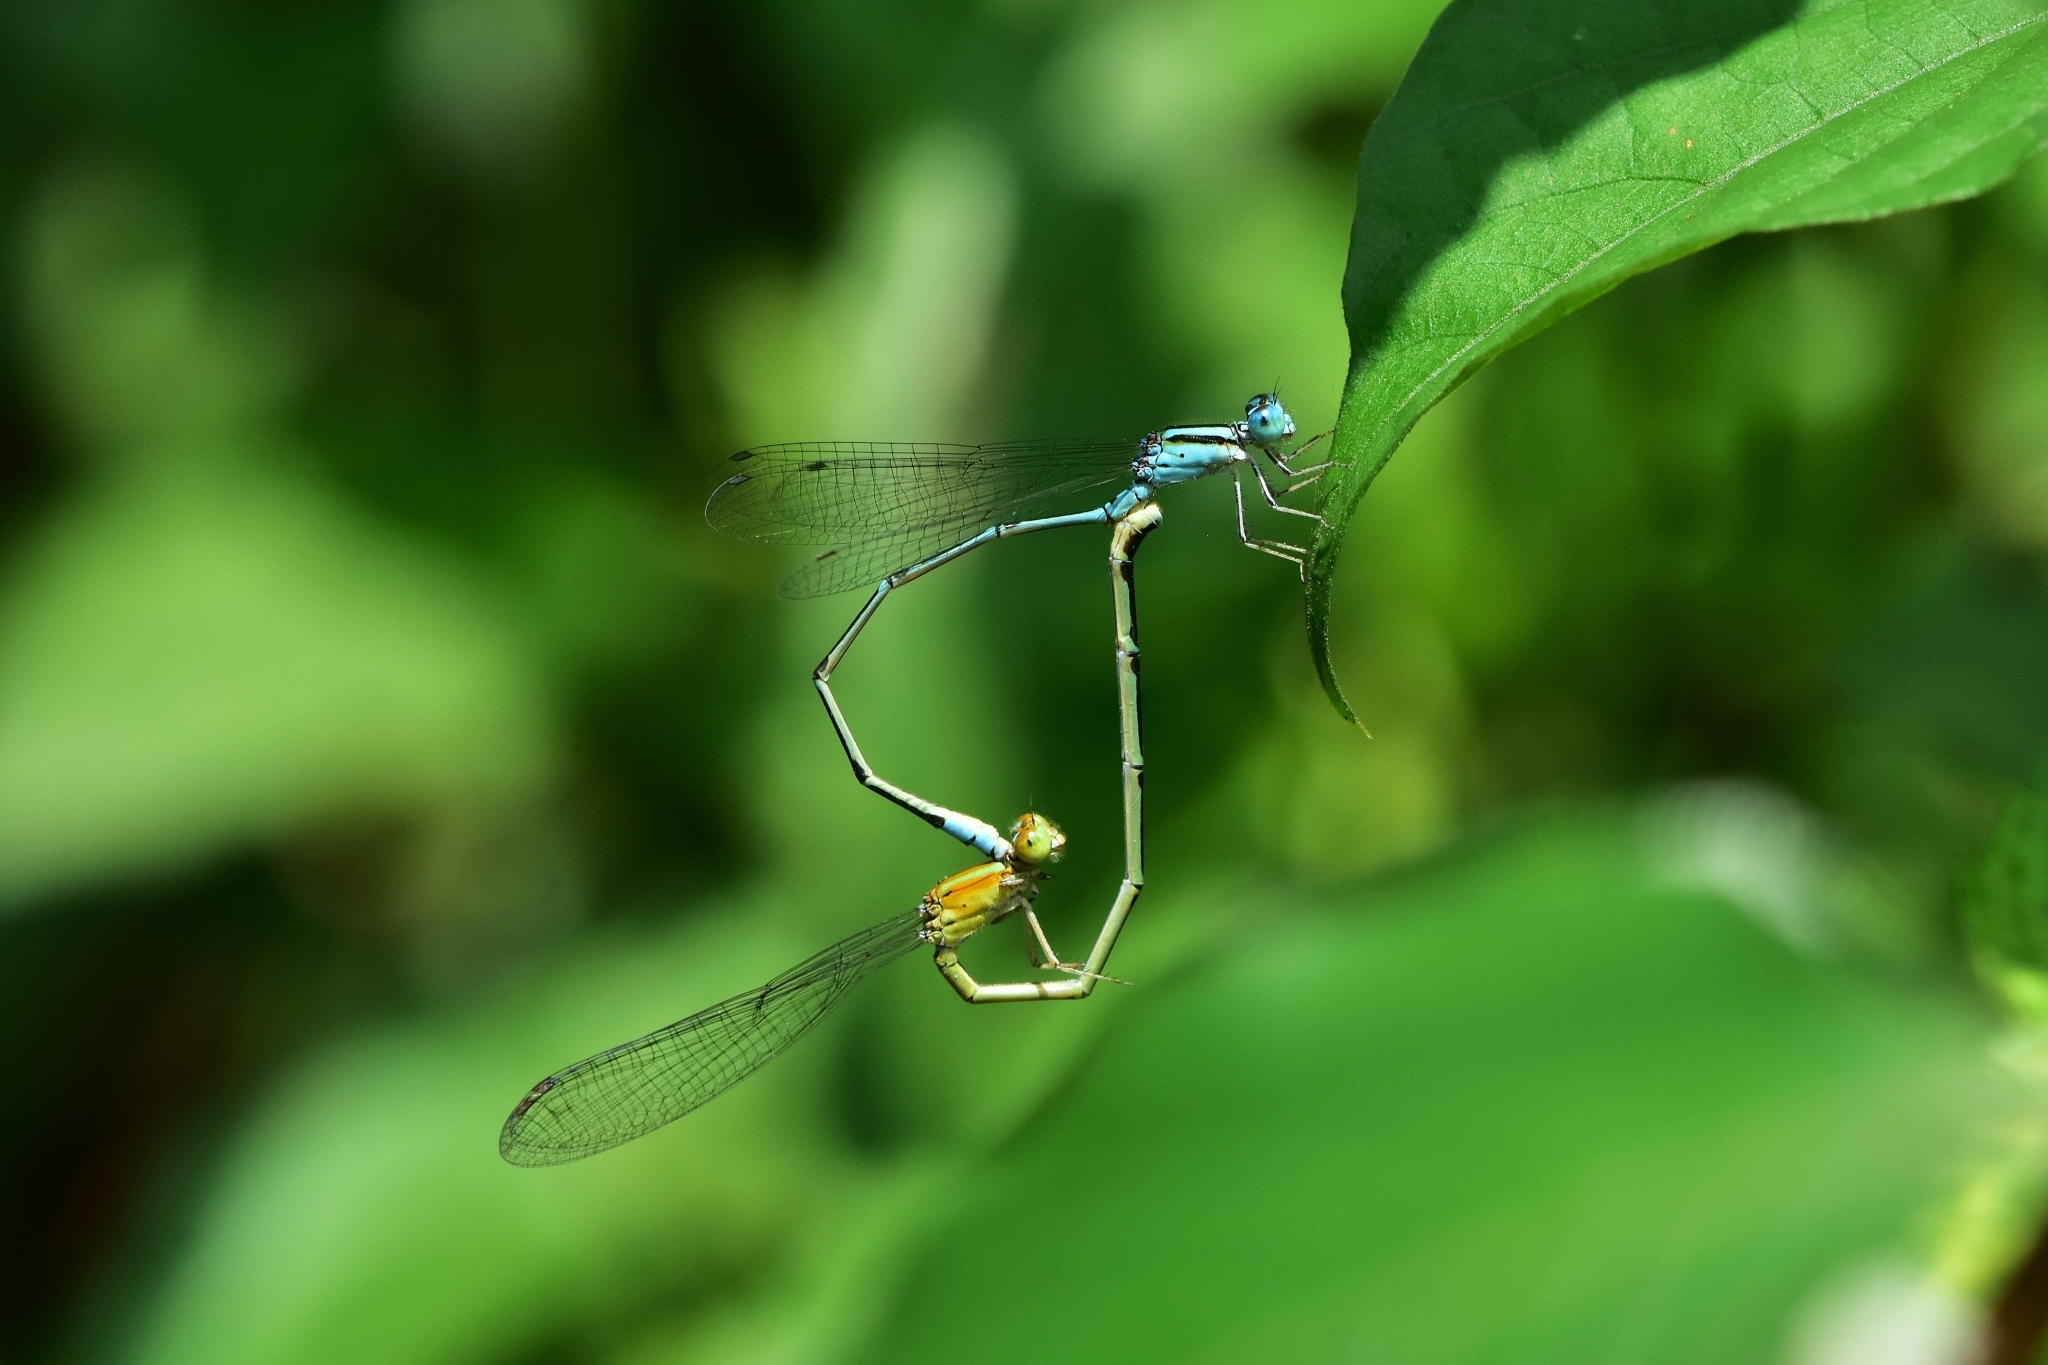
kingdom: Animalia
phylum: Arthropoda
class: Insecta
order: Odonata
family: Coenagrionidae
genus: Pseudagrion
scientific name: Pseudagrion microcephalum
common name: Blue riverdamsel
